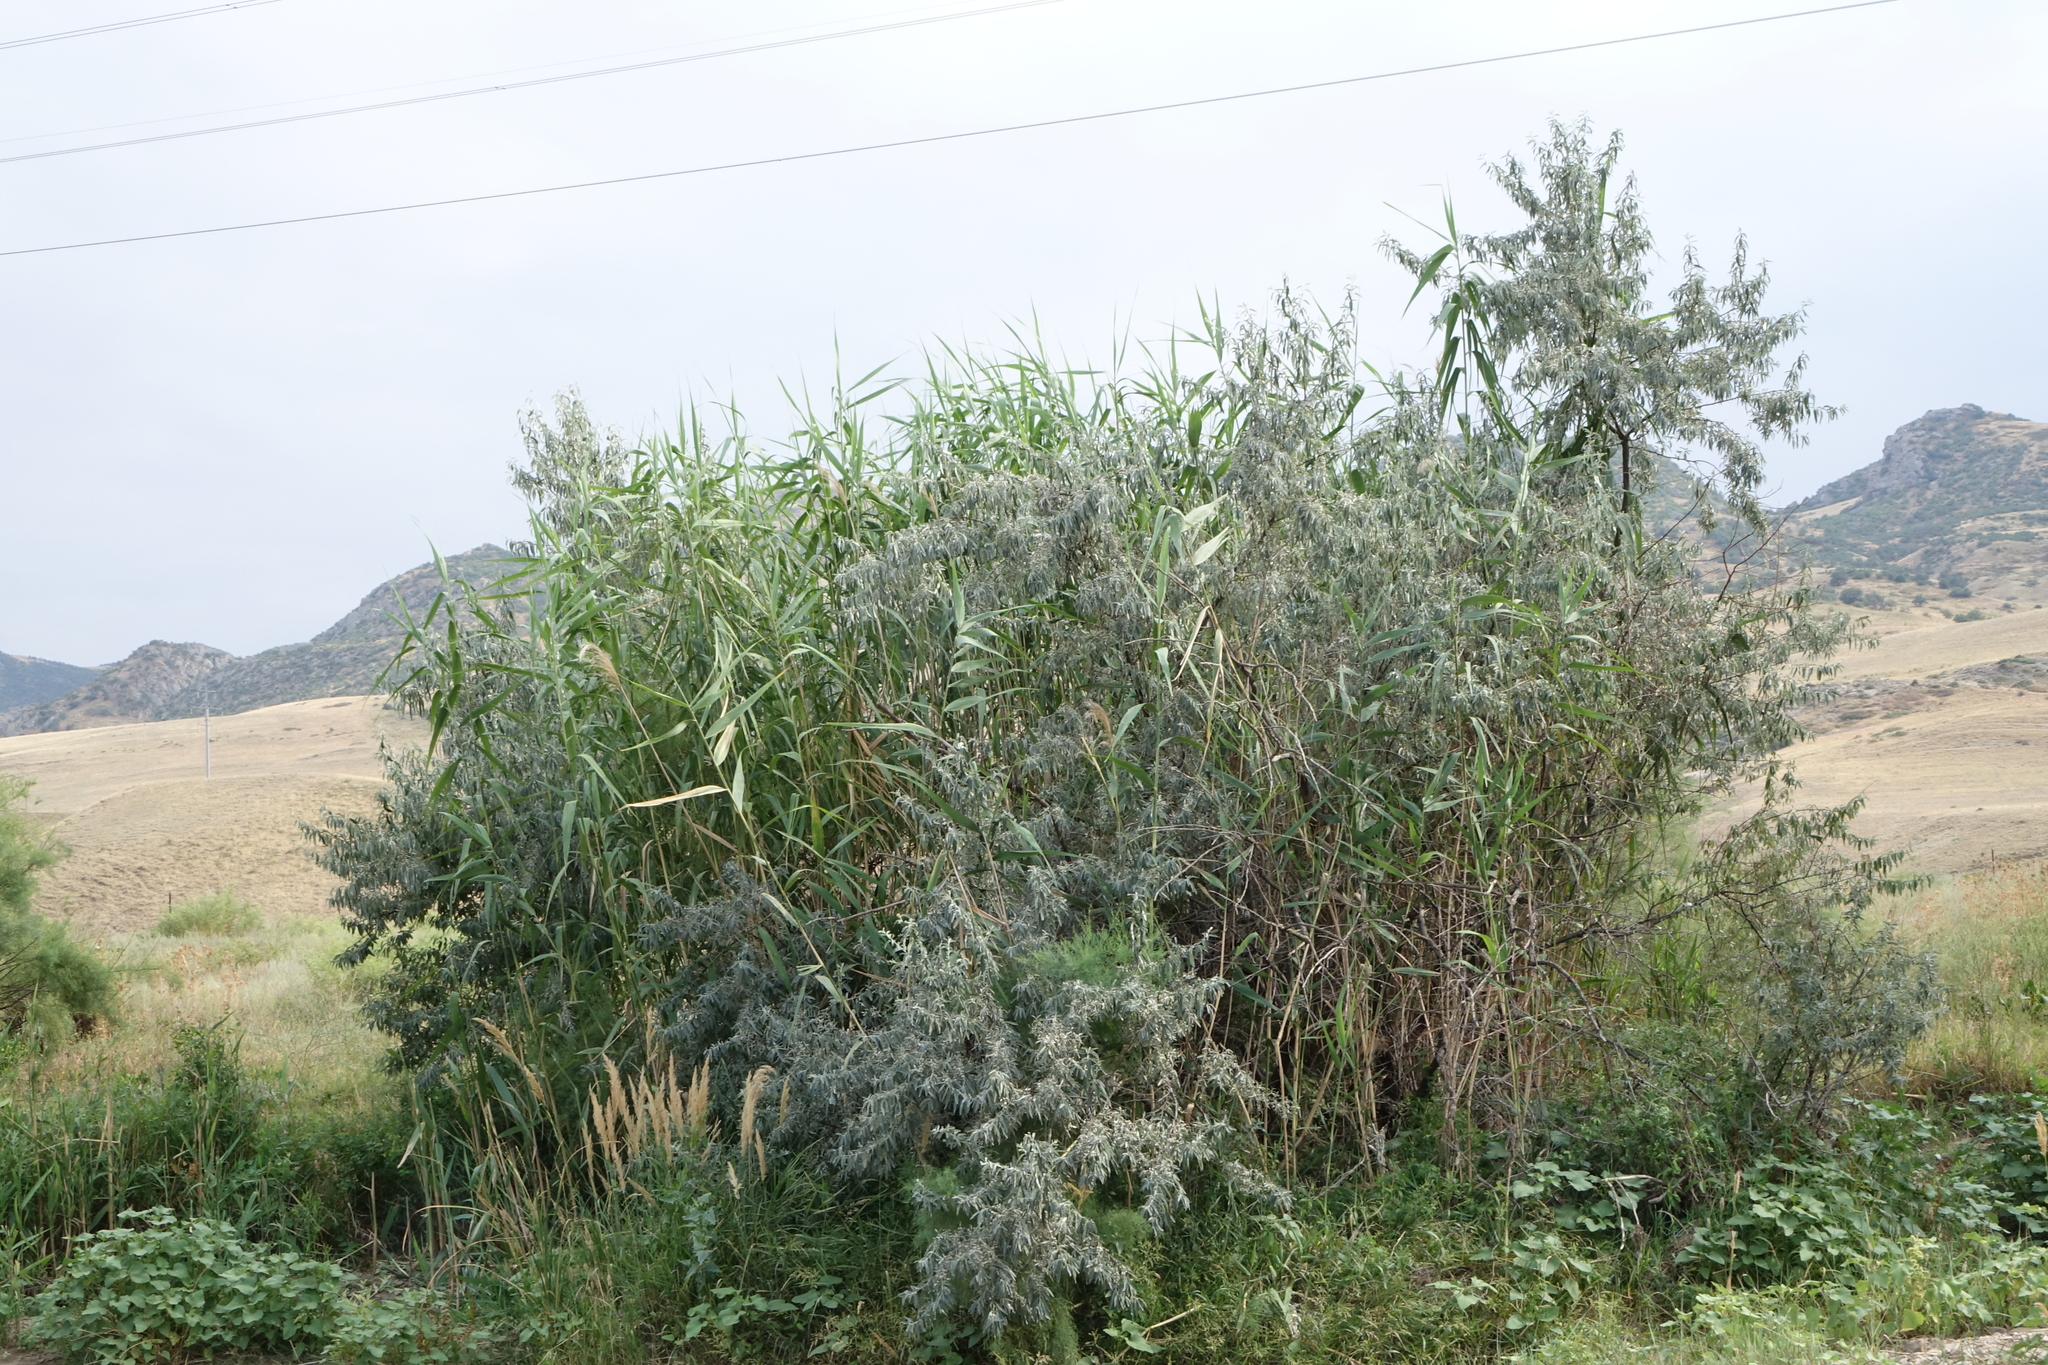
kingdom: Plantae
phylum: Tracheophyta
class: Liliopsida
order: Poales
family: Poaceae
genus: Phragmites
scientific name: Phragmites australis
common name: Common reed
